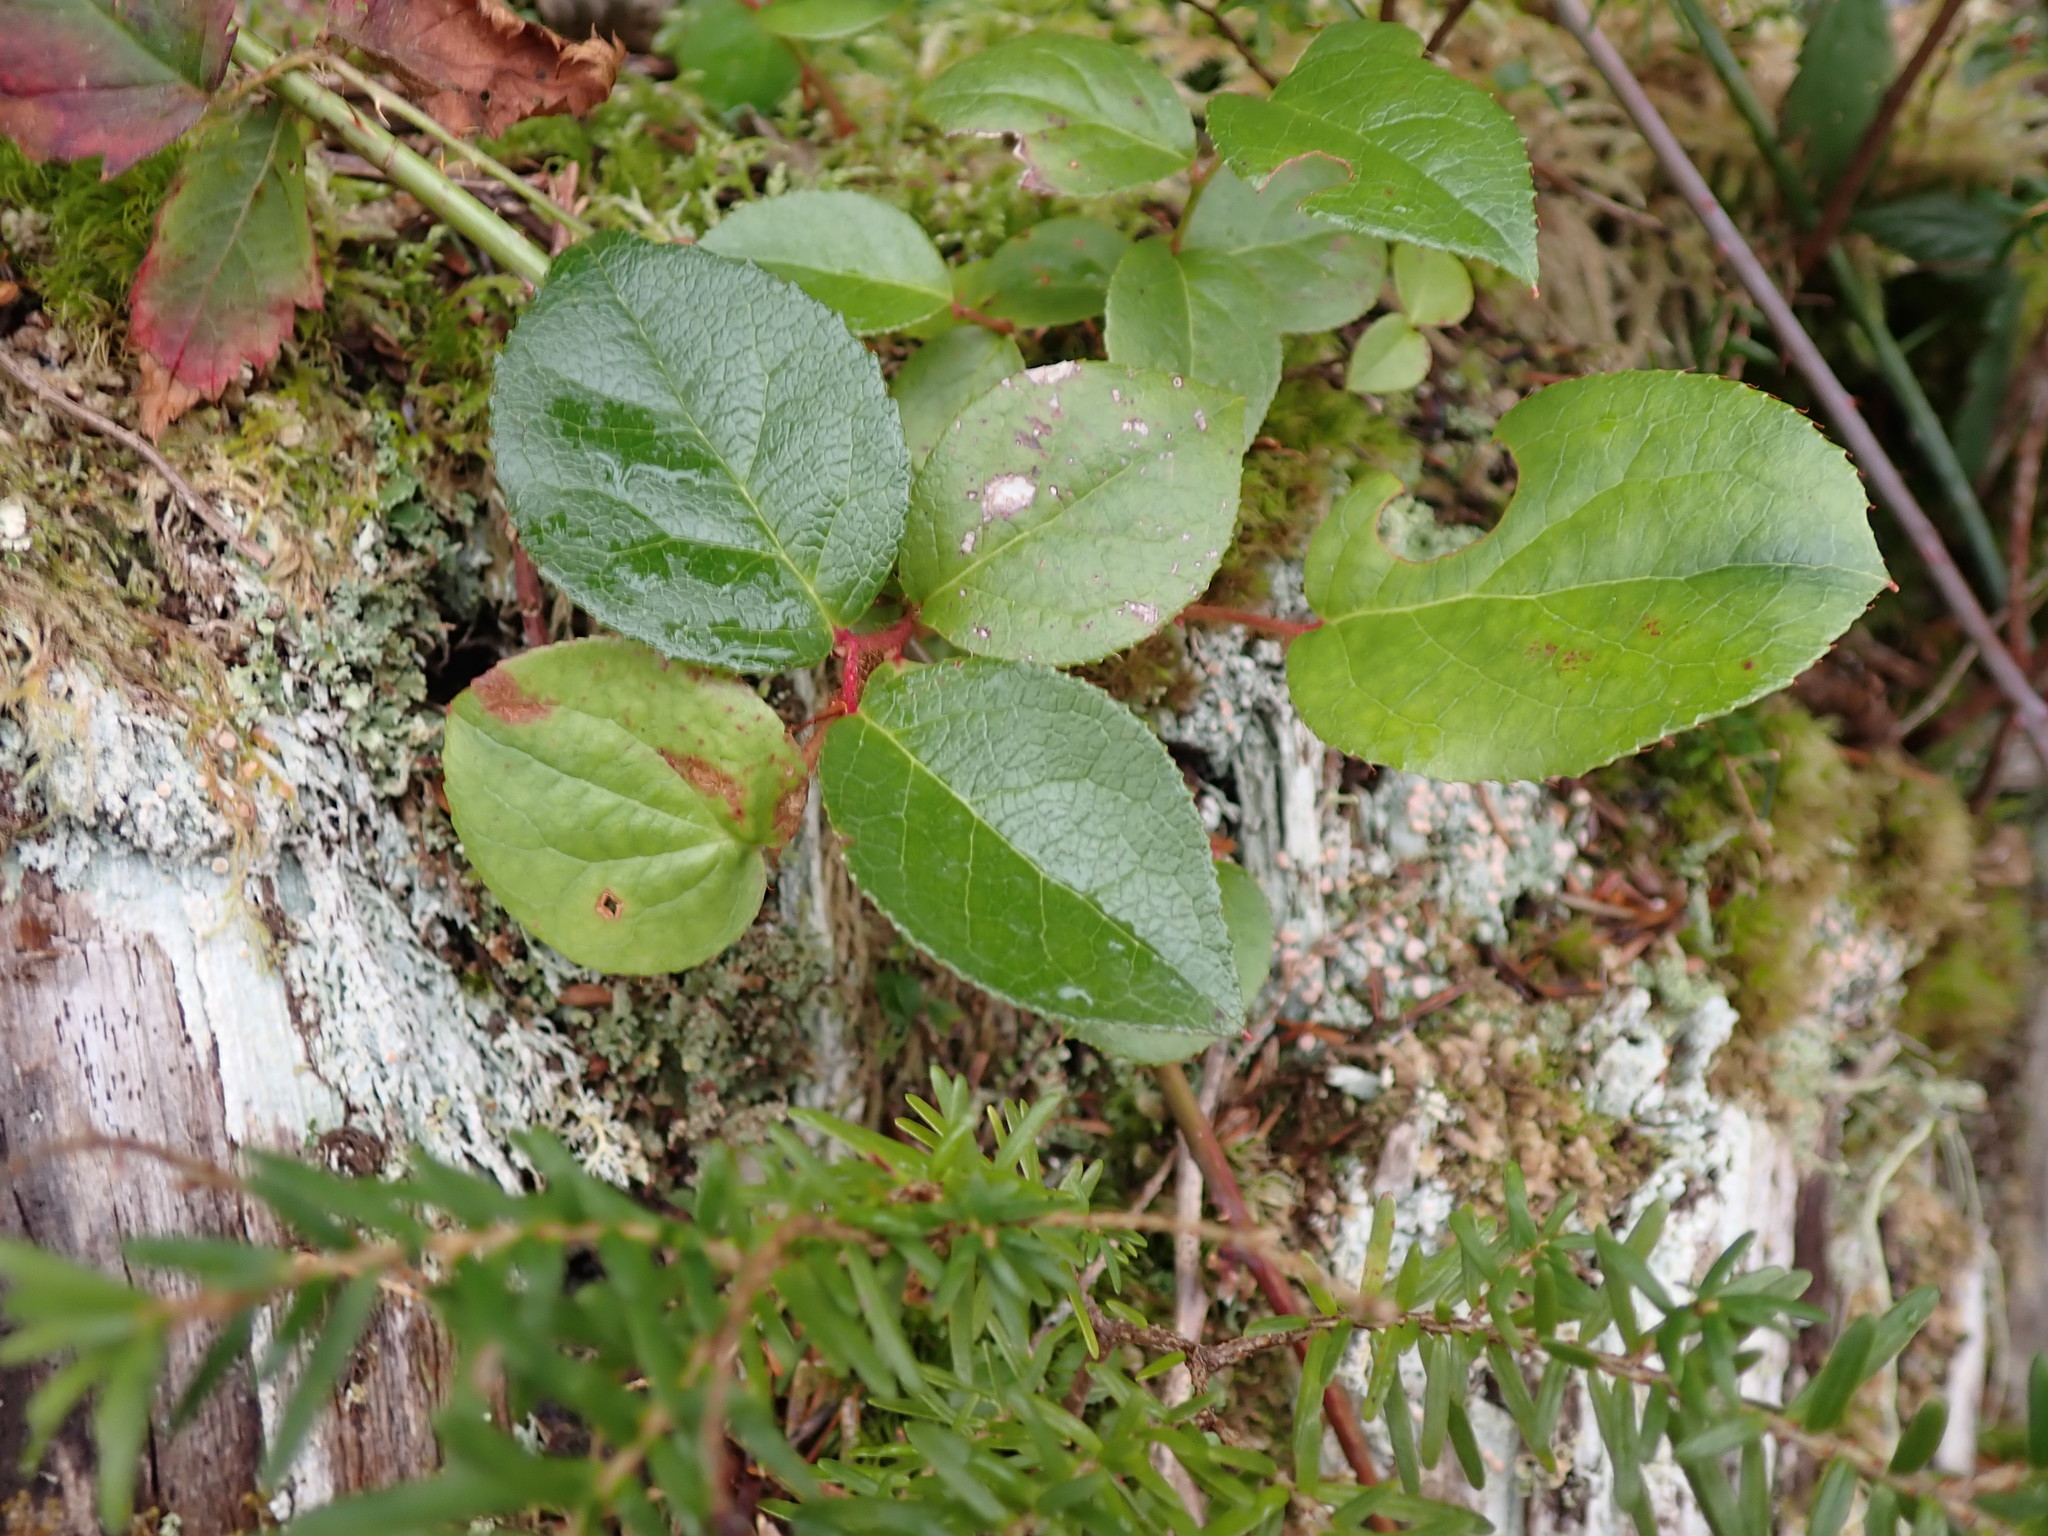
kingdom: Plantae
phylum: Tracheophyta
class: Magnoliopsida
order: Ericales
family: Ericaceae
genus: Gaultheria
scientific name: Gaultheria shallon
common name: Shallon
